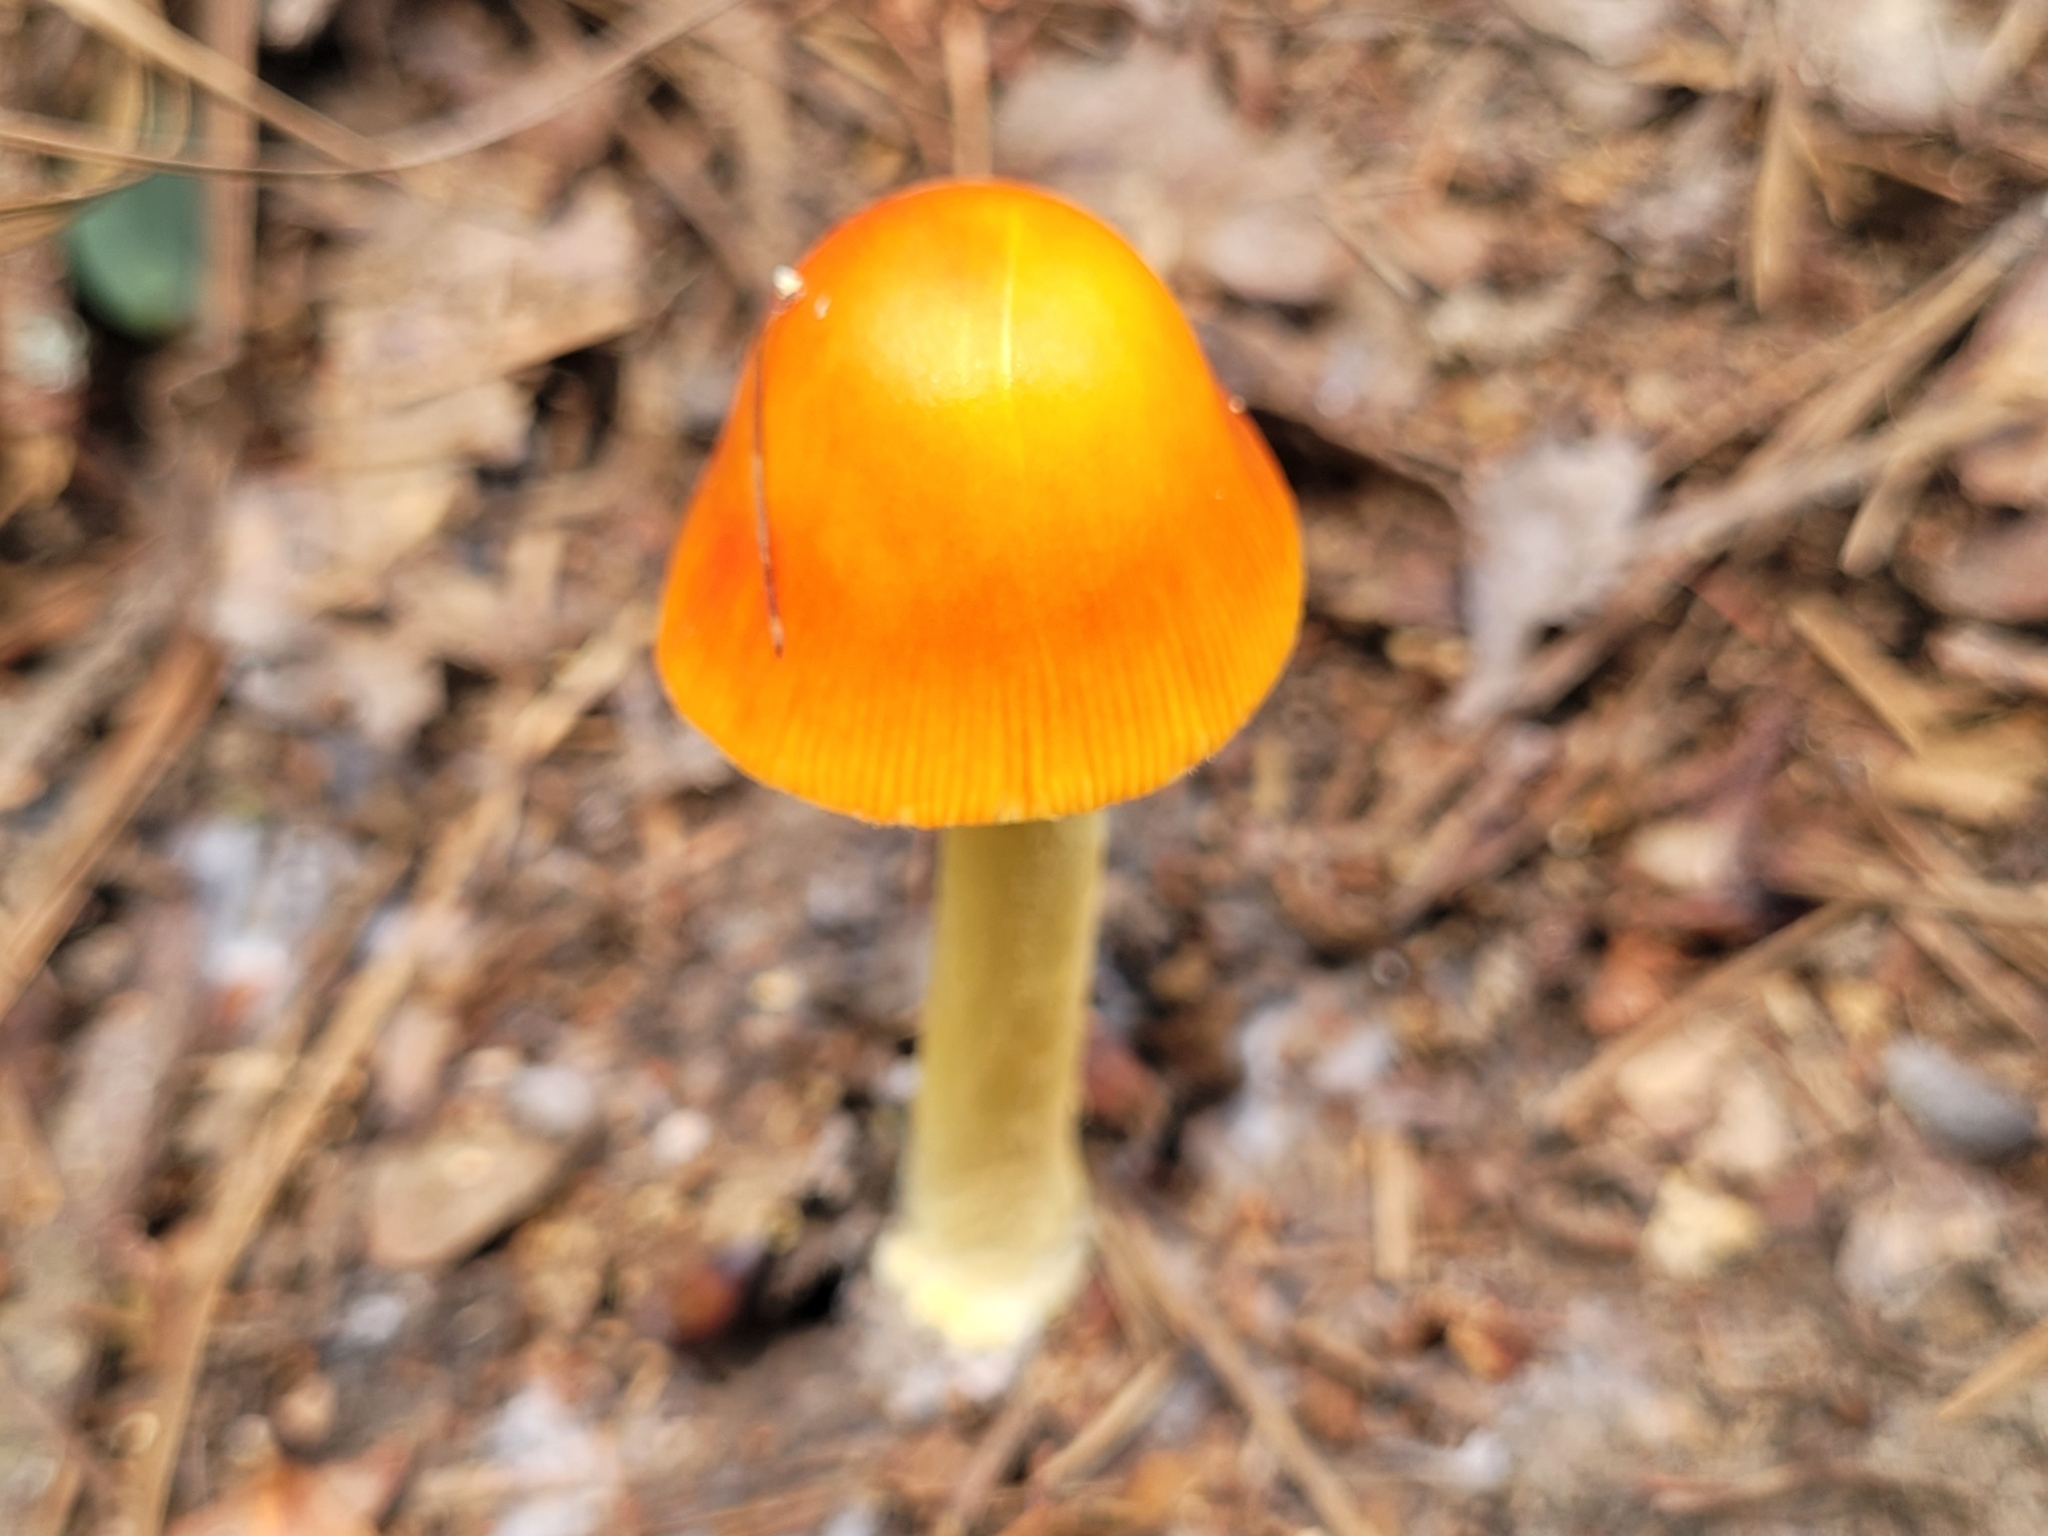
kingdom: Fungi
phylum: Basidiomycota
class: Agaricomycetes
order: Agaricales
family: Amanitaceae
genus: Amanita
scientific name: Amanita parcivolvata
